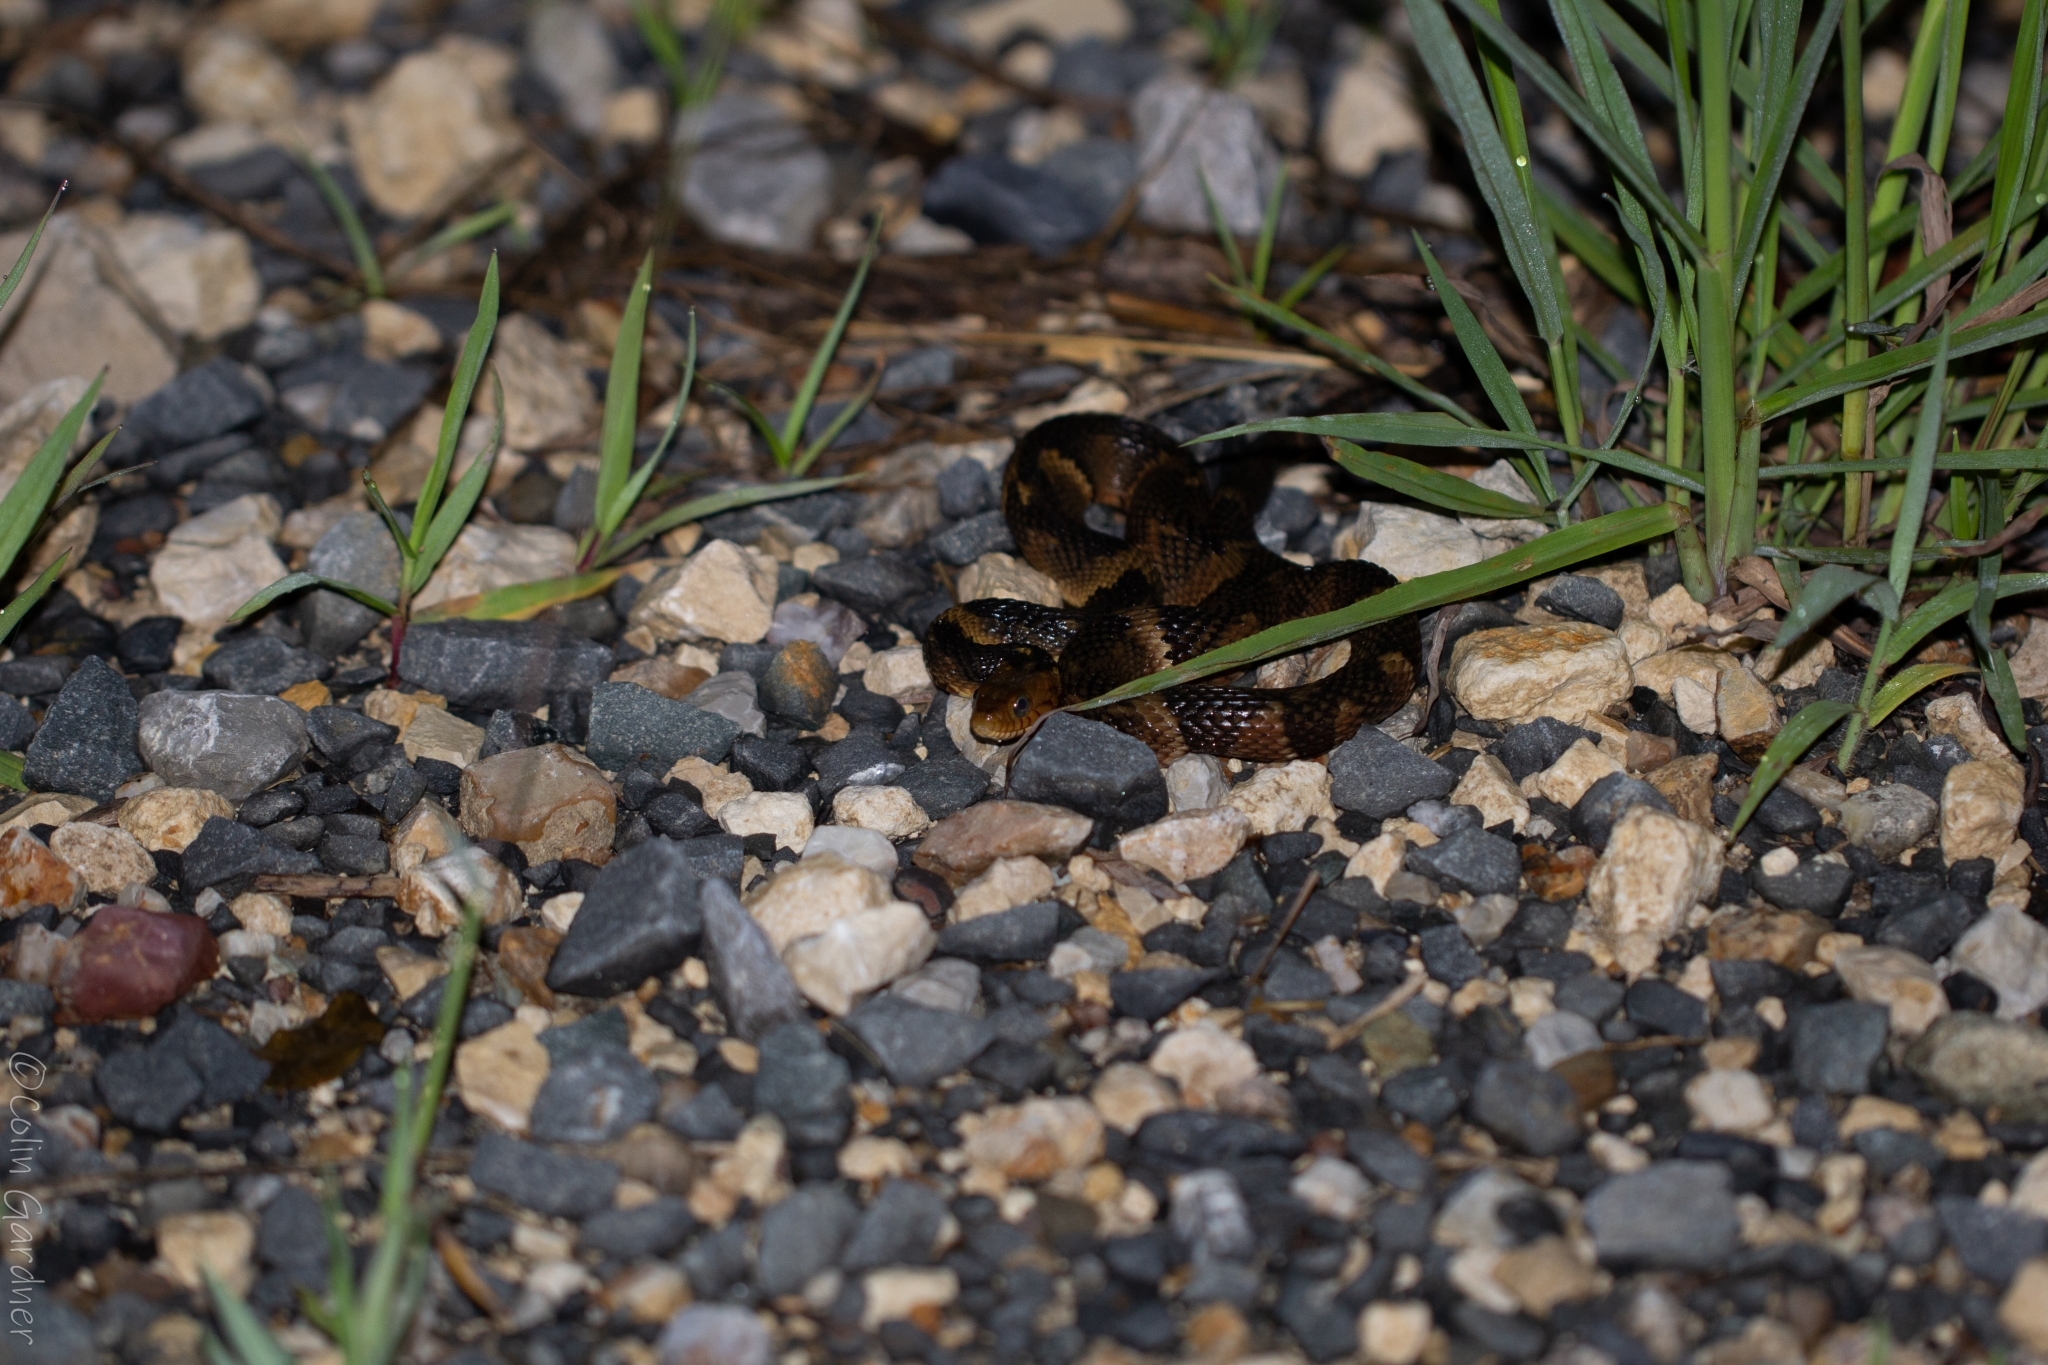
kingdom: Animalia
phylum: Chordata
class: Squamata
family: Colubridae
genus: Nerodia
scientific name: Nerodia fasciata
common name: Southern water snake
